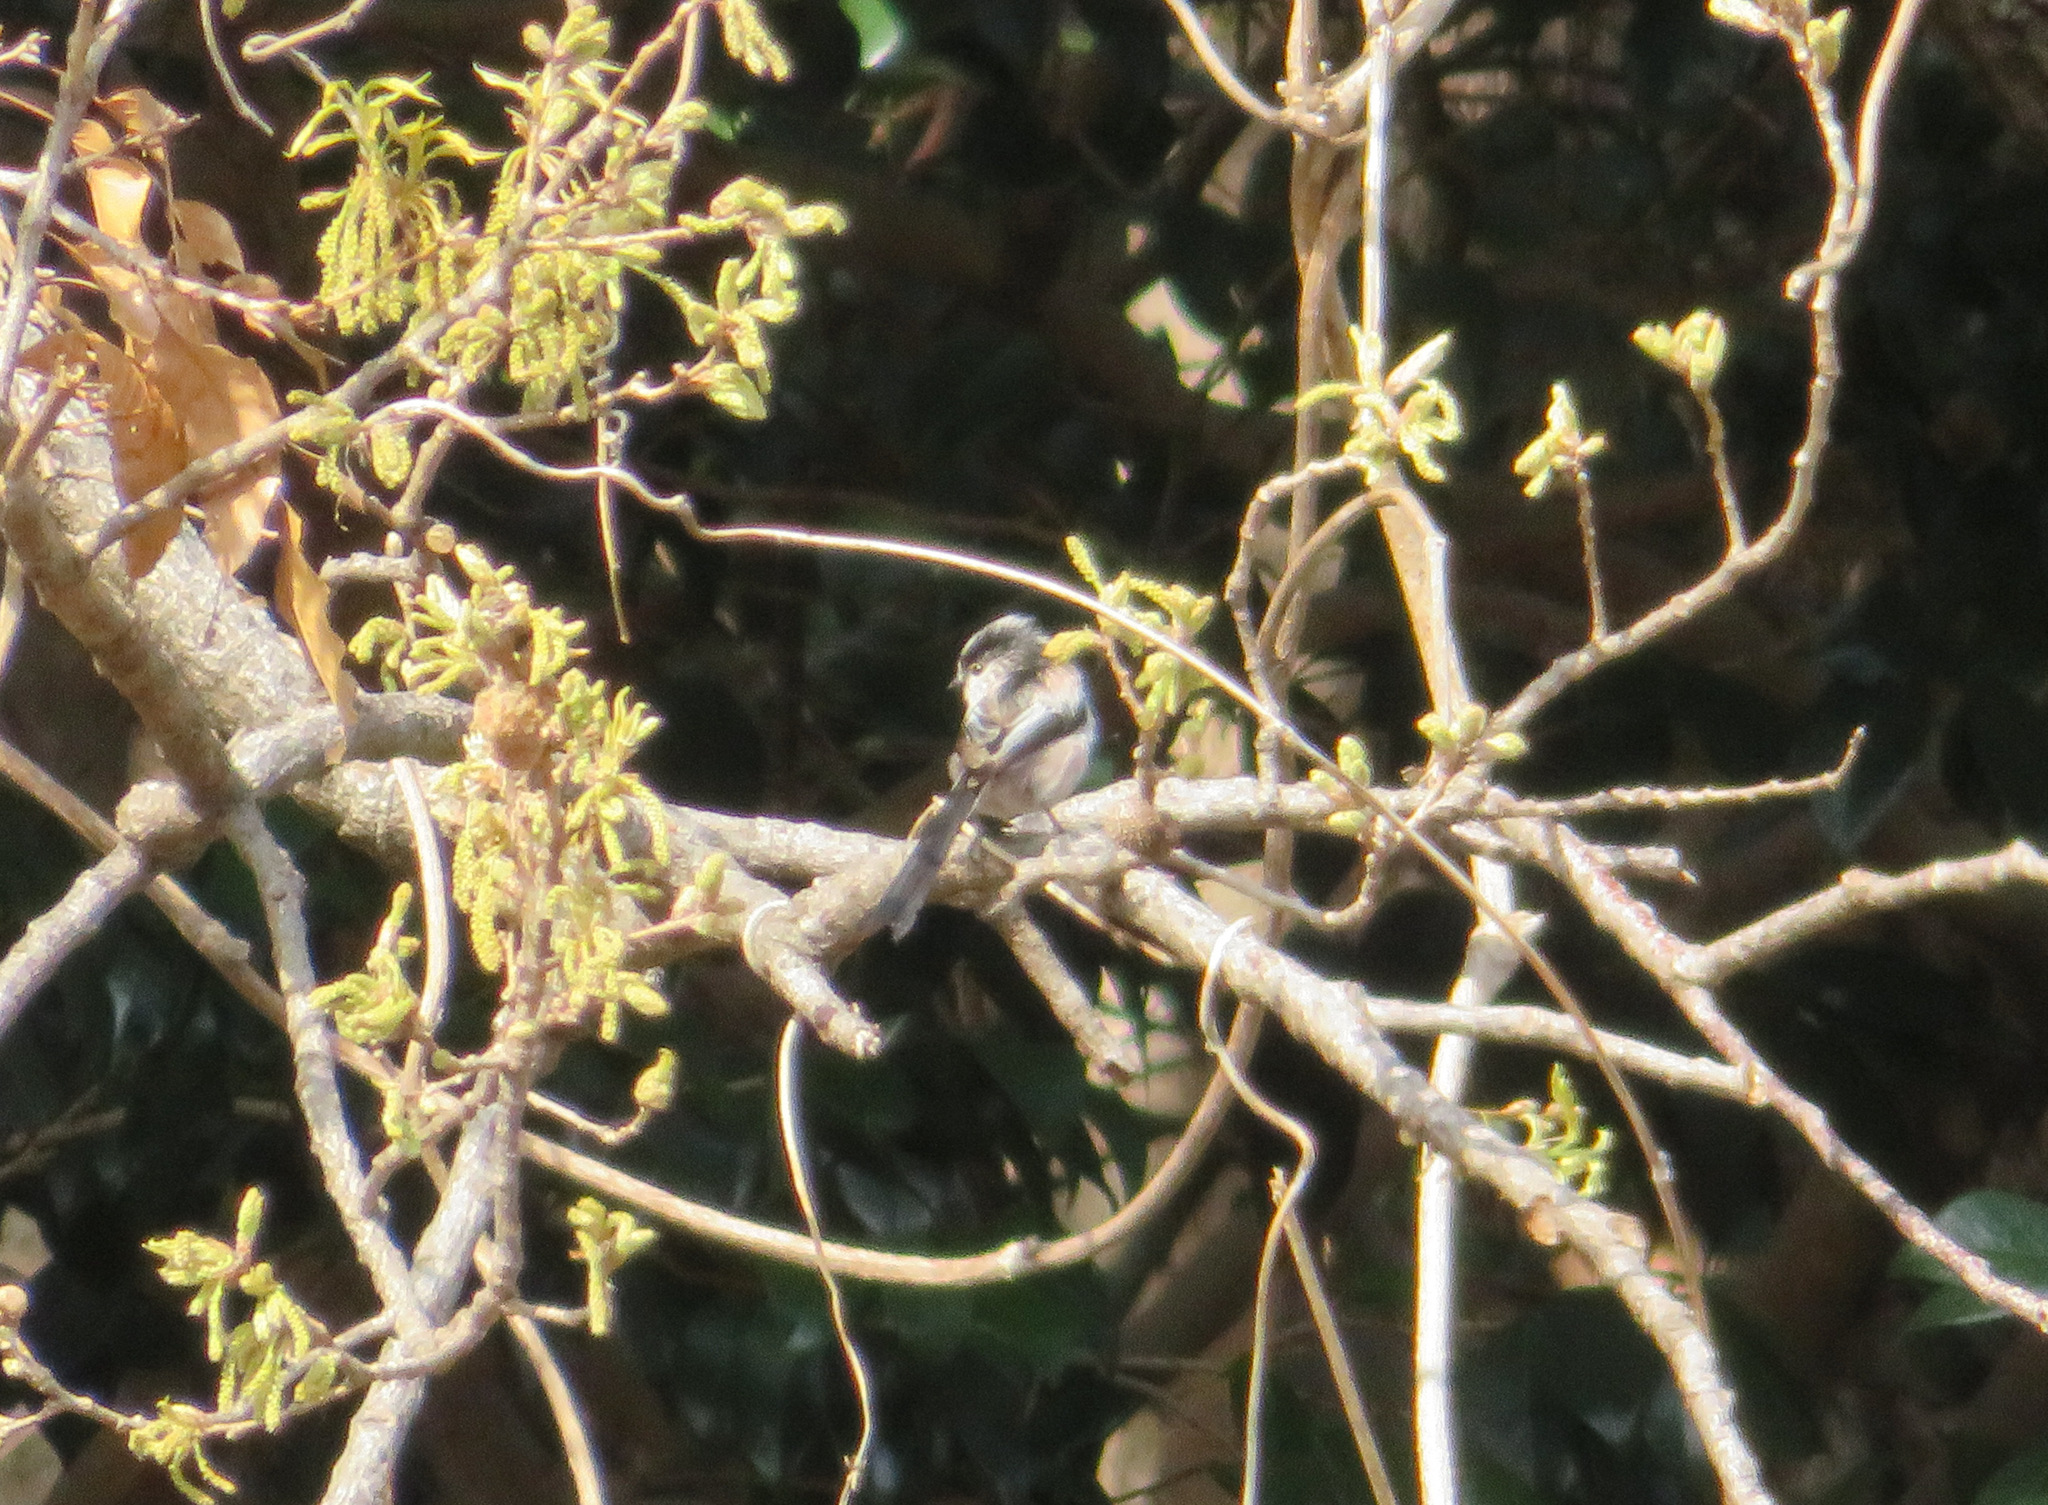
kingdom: Animalia
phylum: Chordata
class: Aves
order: Passeriformes
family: Aegithalidae
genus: Aegithalos
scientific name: Aegithalos caudatus
